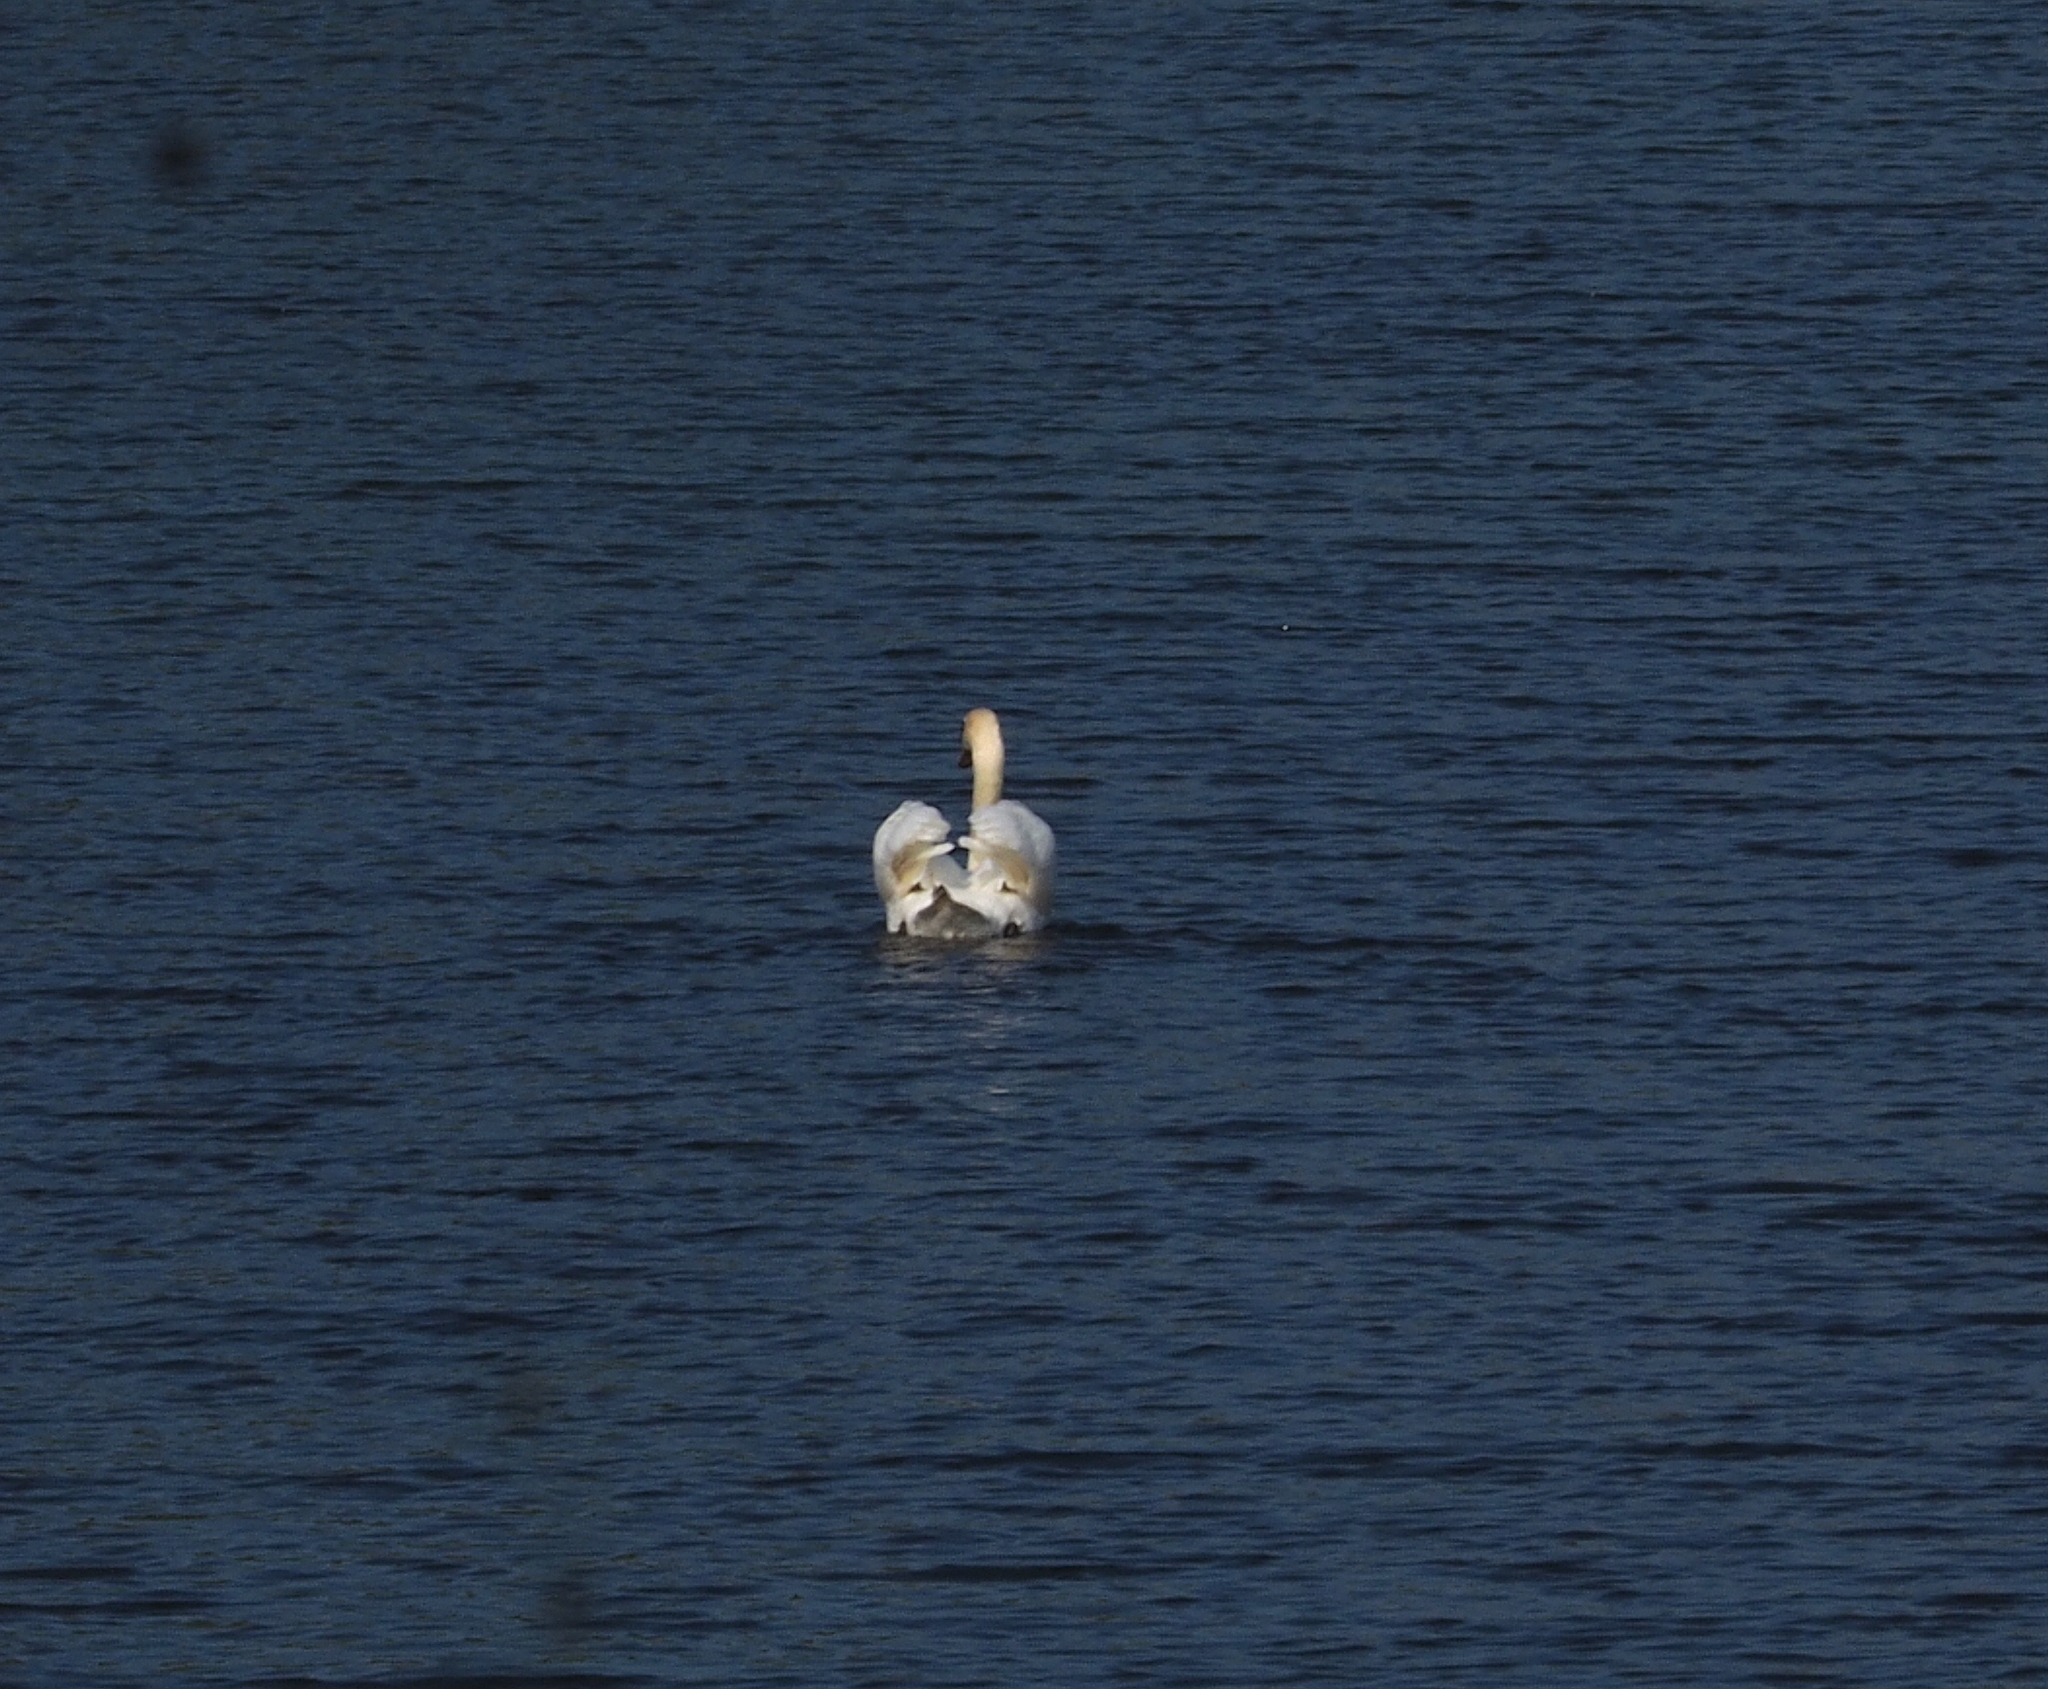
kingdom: Animalia
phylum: Chordata
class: Aves
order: Anseriformes
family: Anatidae
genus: Cygnus
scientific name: Cygnus olor
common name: Mute swan
